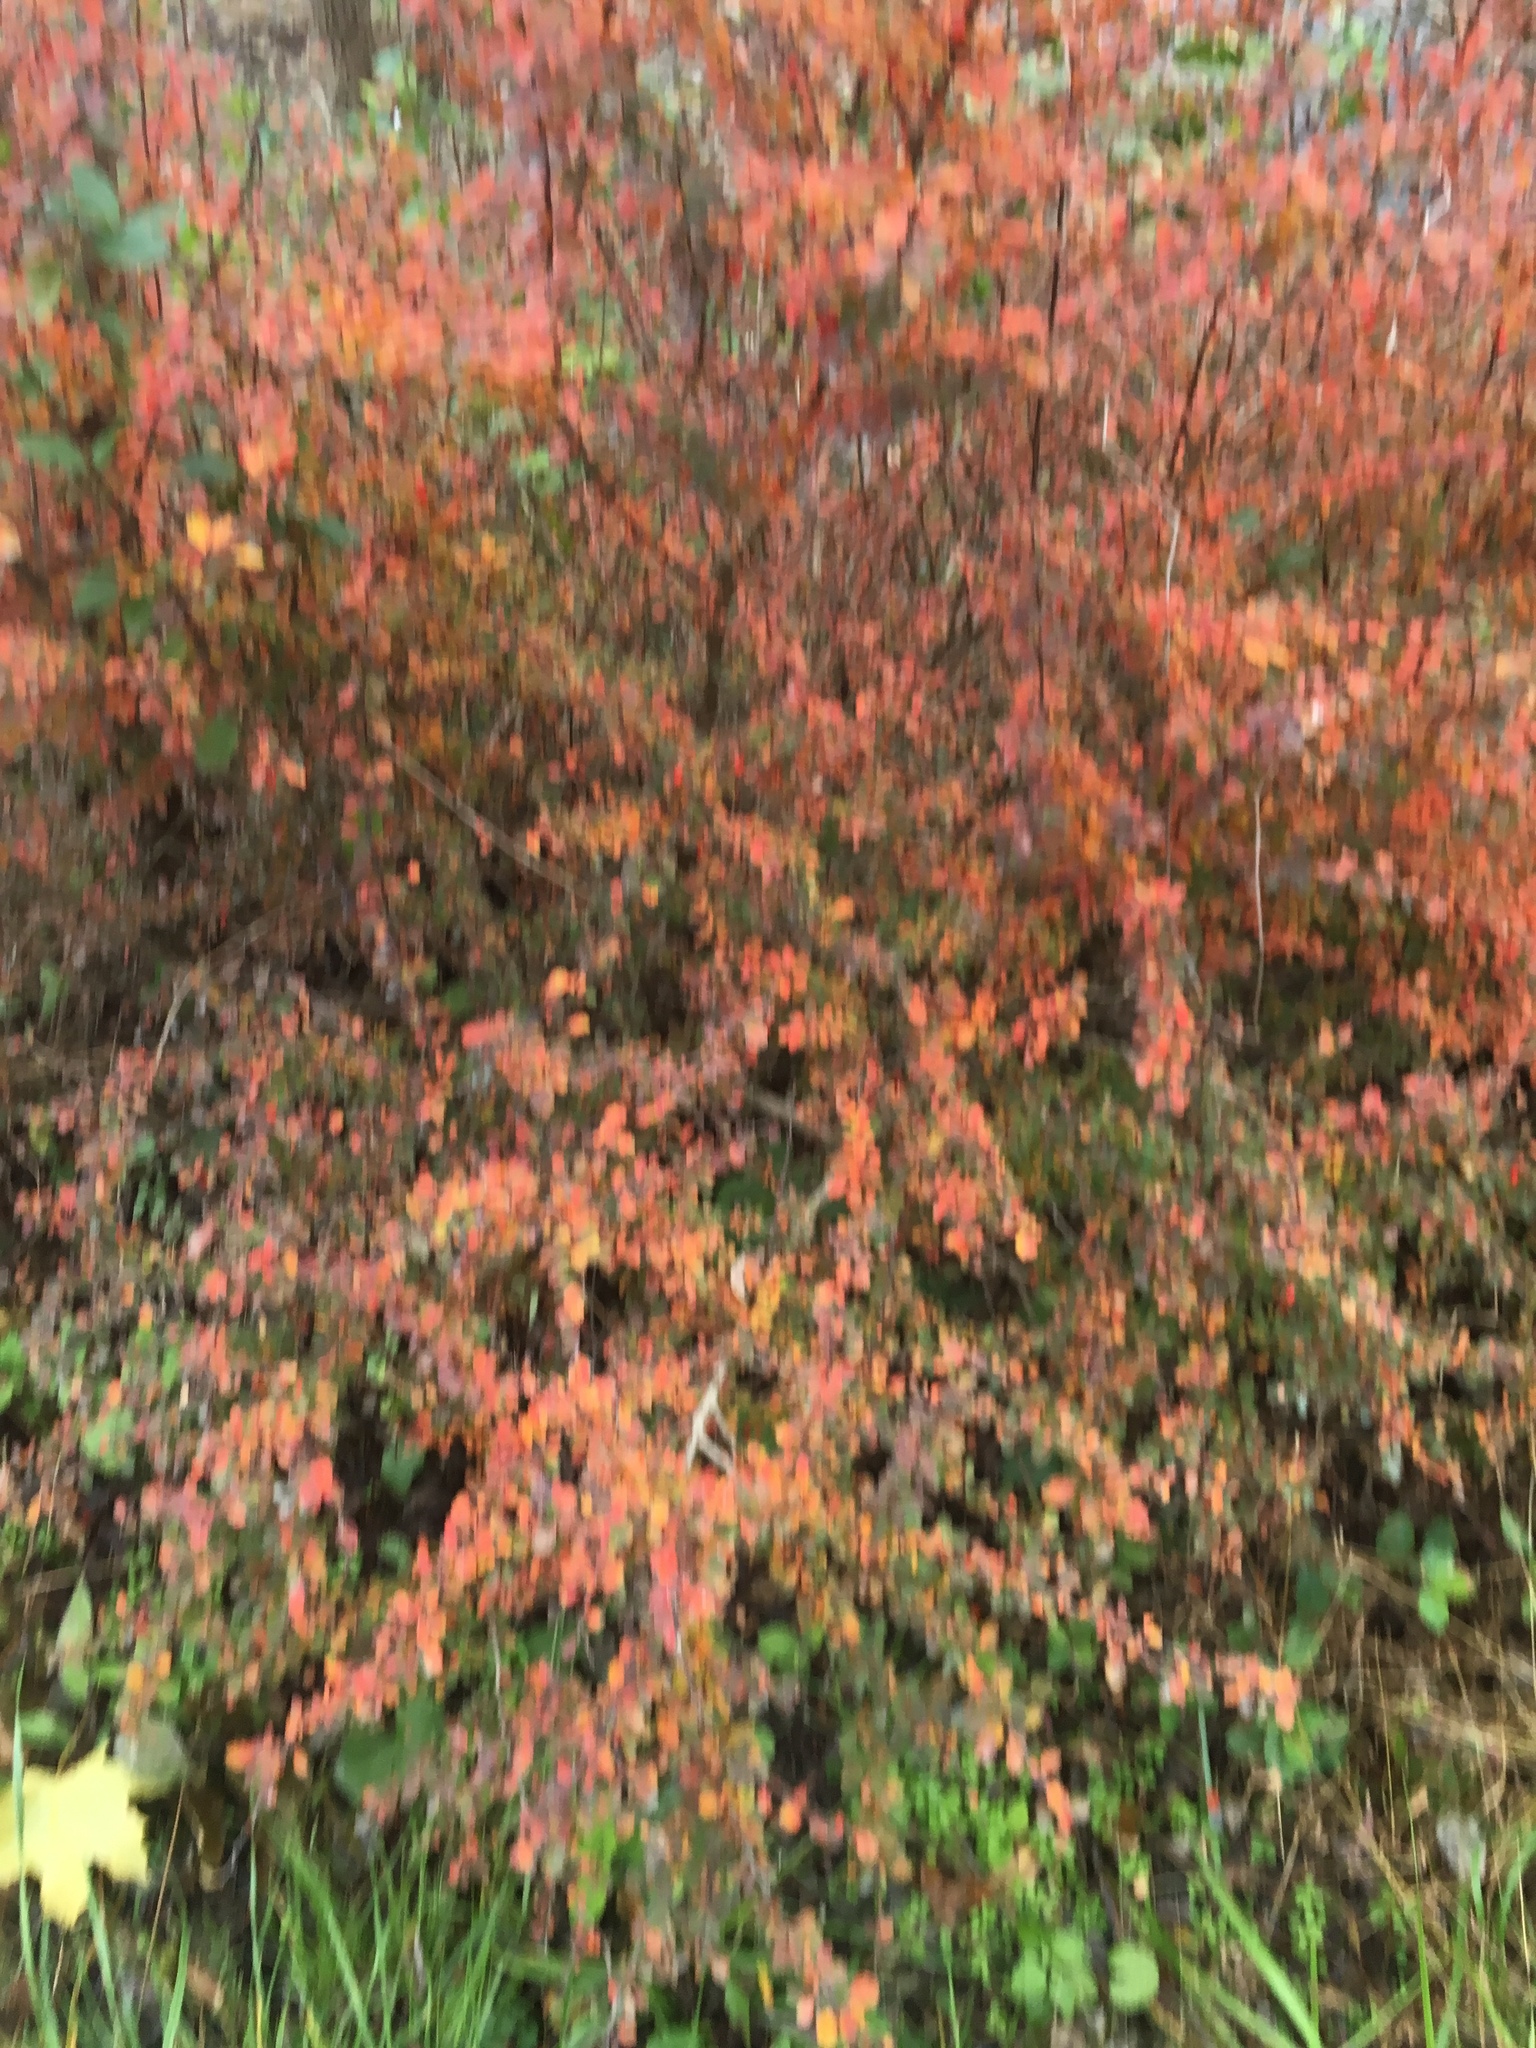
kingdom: Plantae
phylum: Tracheophyta
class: Magnoliopsida
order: Ranunculales
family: Berberidaceae
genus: Berberis
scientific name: Berberis thunbergii
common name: Japanese barberry
